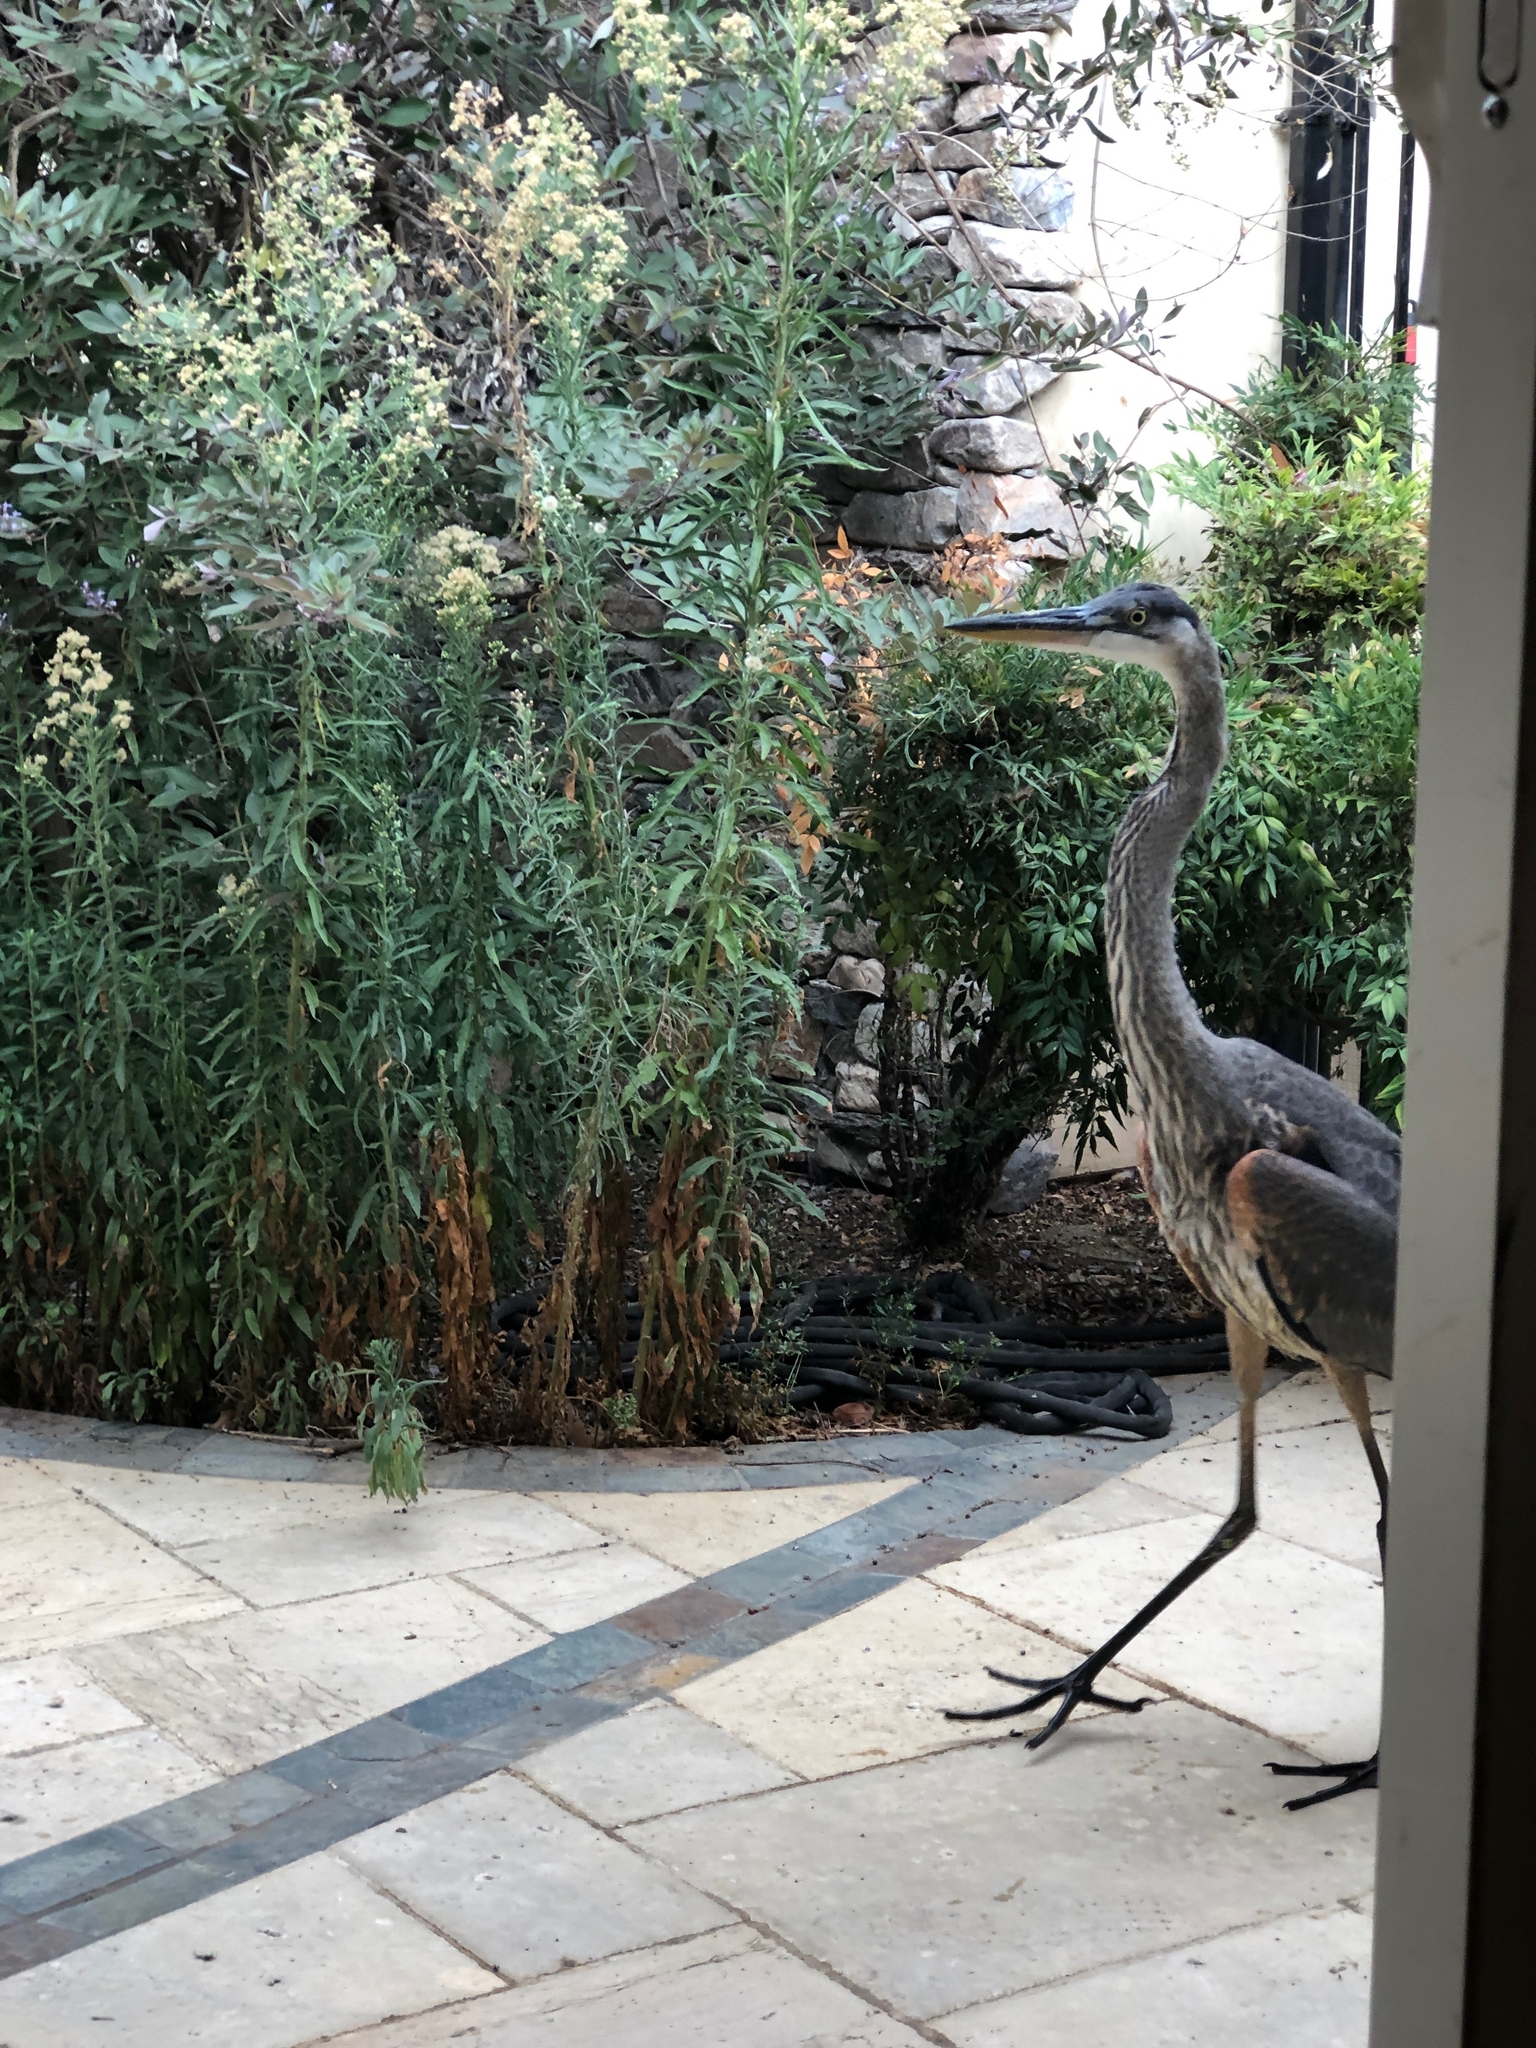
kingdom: Animalia
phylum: Chordata
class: Aves
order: Pelecaniformes
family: Ardeidae
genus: Ardea
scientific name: Ardea herodias
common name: Great blue heron
